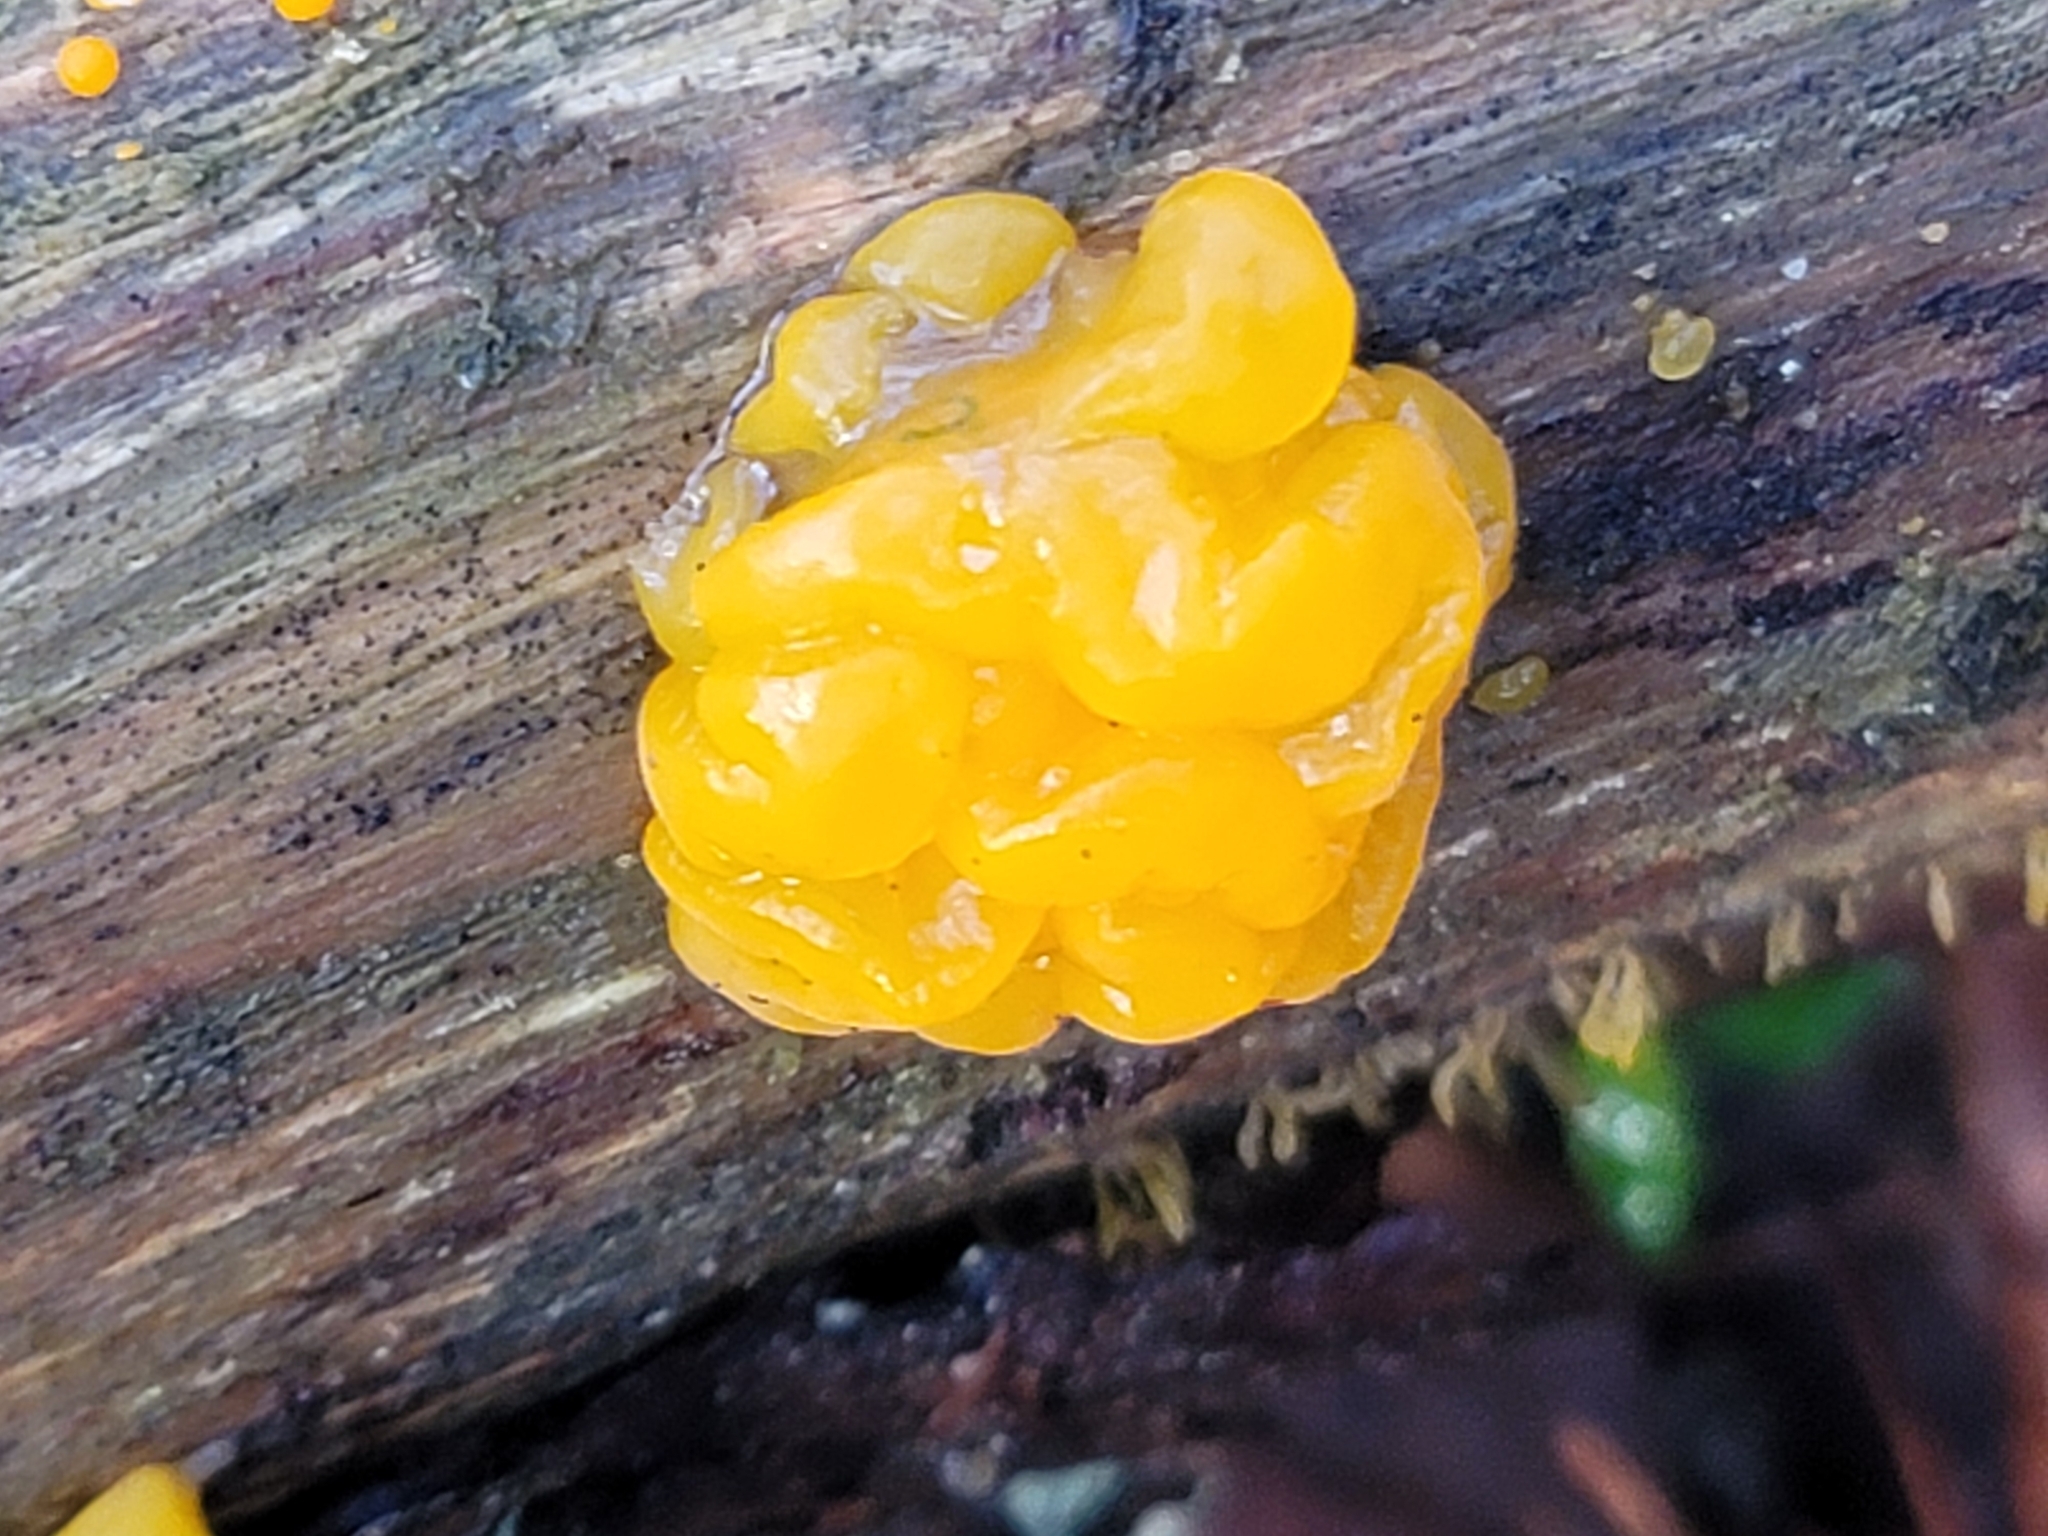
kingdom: Fungi
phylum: Basidiomycota
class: Dacrymycetes
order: Dacrymycetales
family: Dacrymycetaceae
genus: Dacrymyces
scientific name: Dacrymyces chrysospermus
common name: Orange jelly spot
